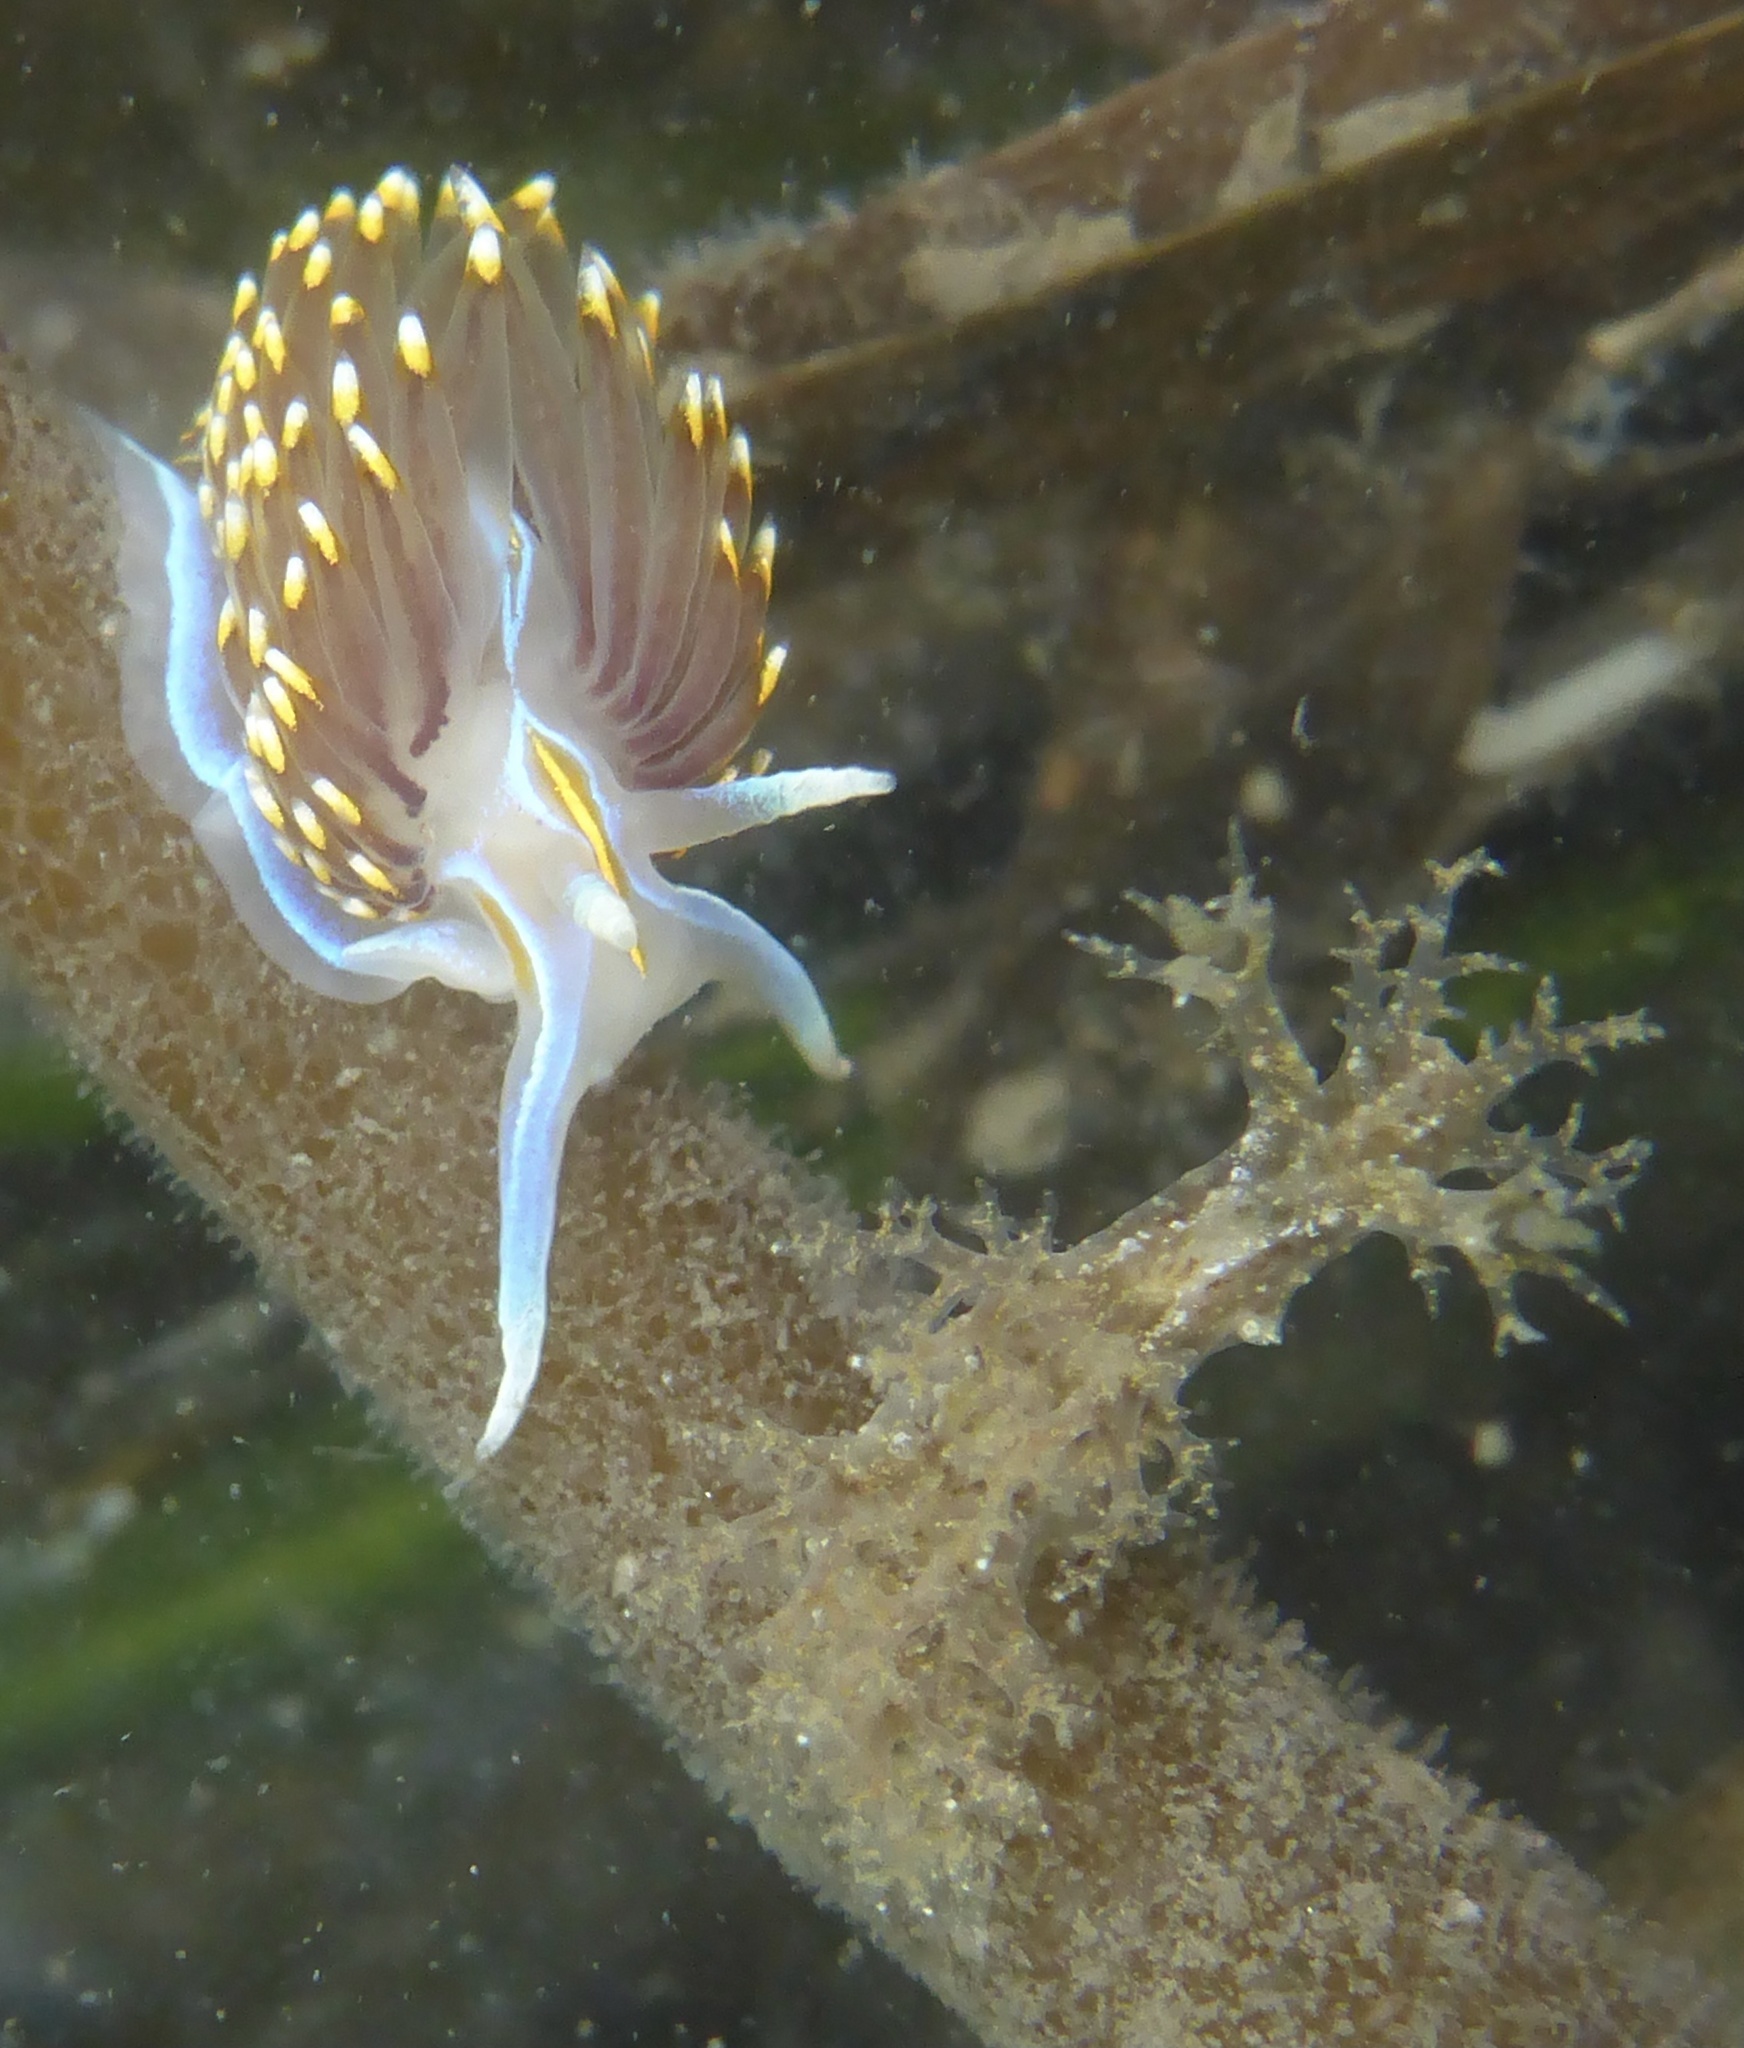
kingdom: Animalia
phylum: Mollusca
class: Gastropoda
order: Nudibranchia
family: Myrrhinidae
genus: Hermissenda
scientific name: Hermissenda opalescens
